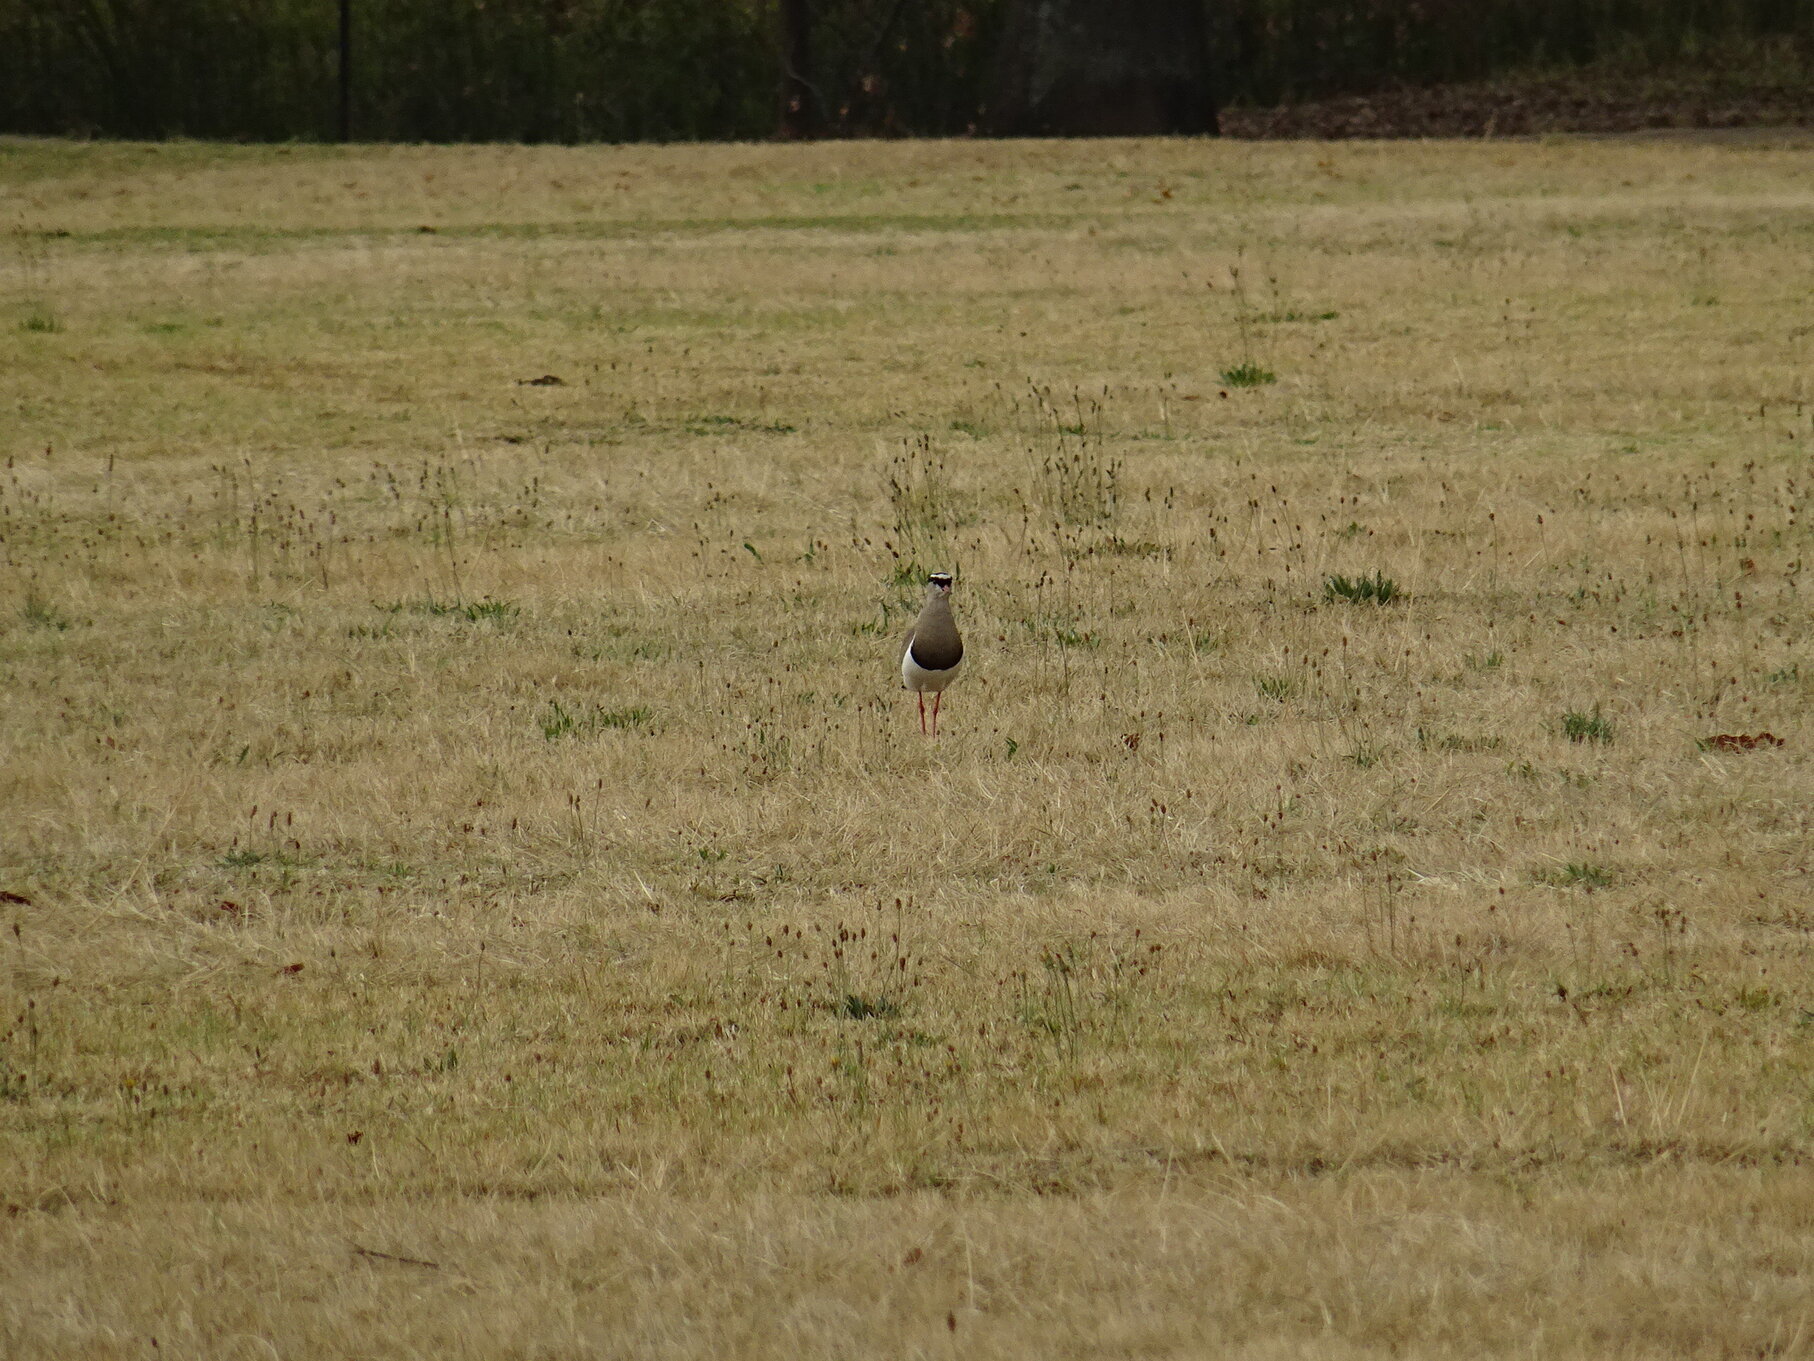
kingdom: Animalia
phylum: Chordata
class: Aves
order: Charadriiformes
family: Charadriidae
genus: Vanellus
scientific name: Vanellus coronatus
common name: Crowned lapwing
